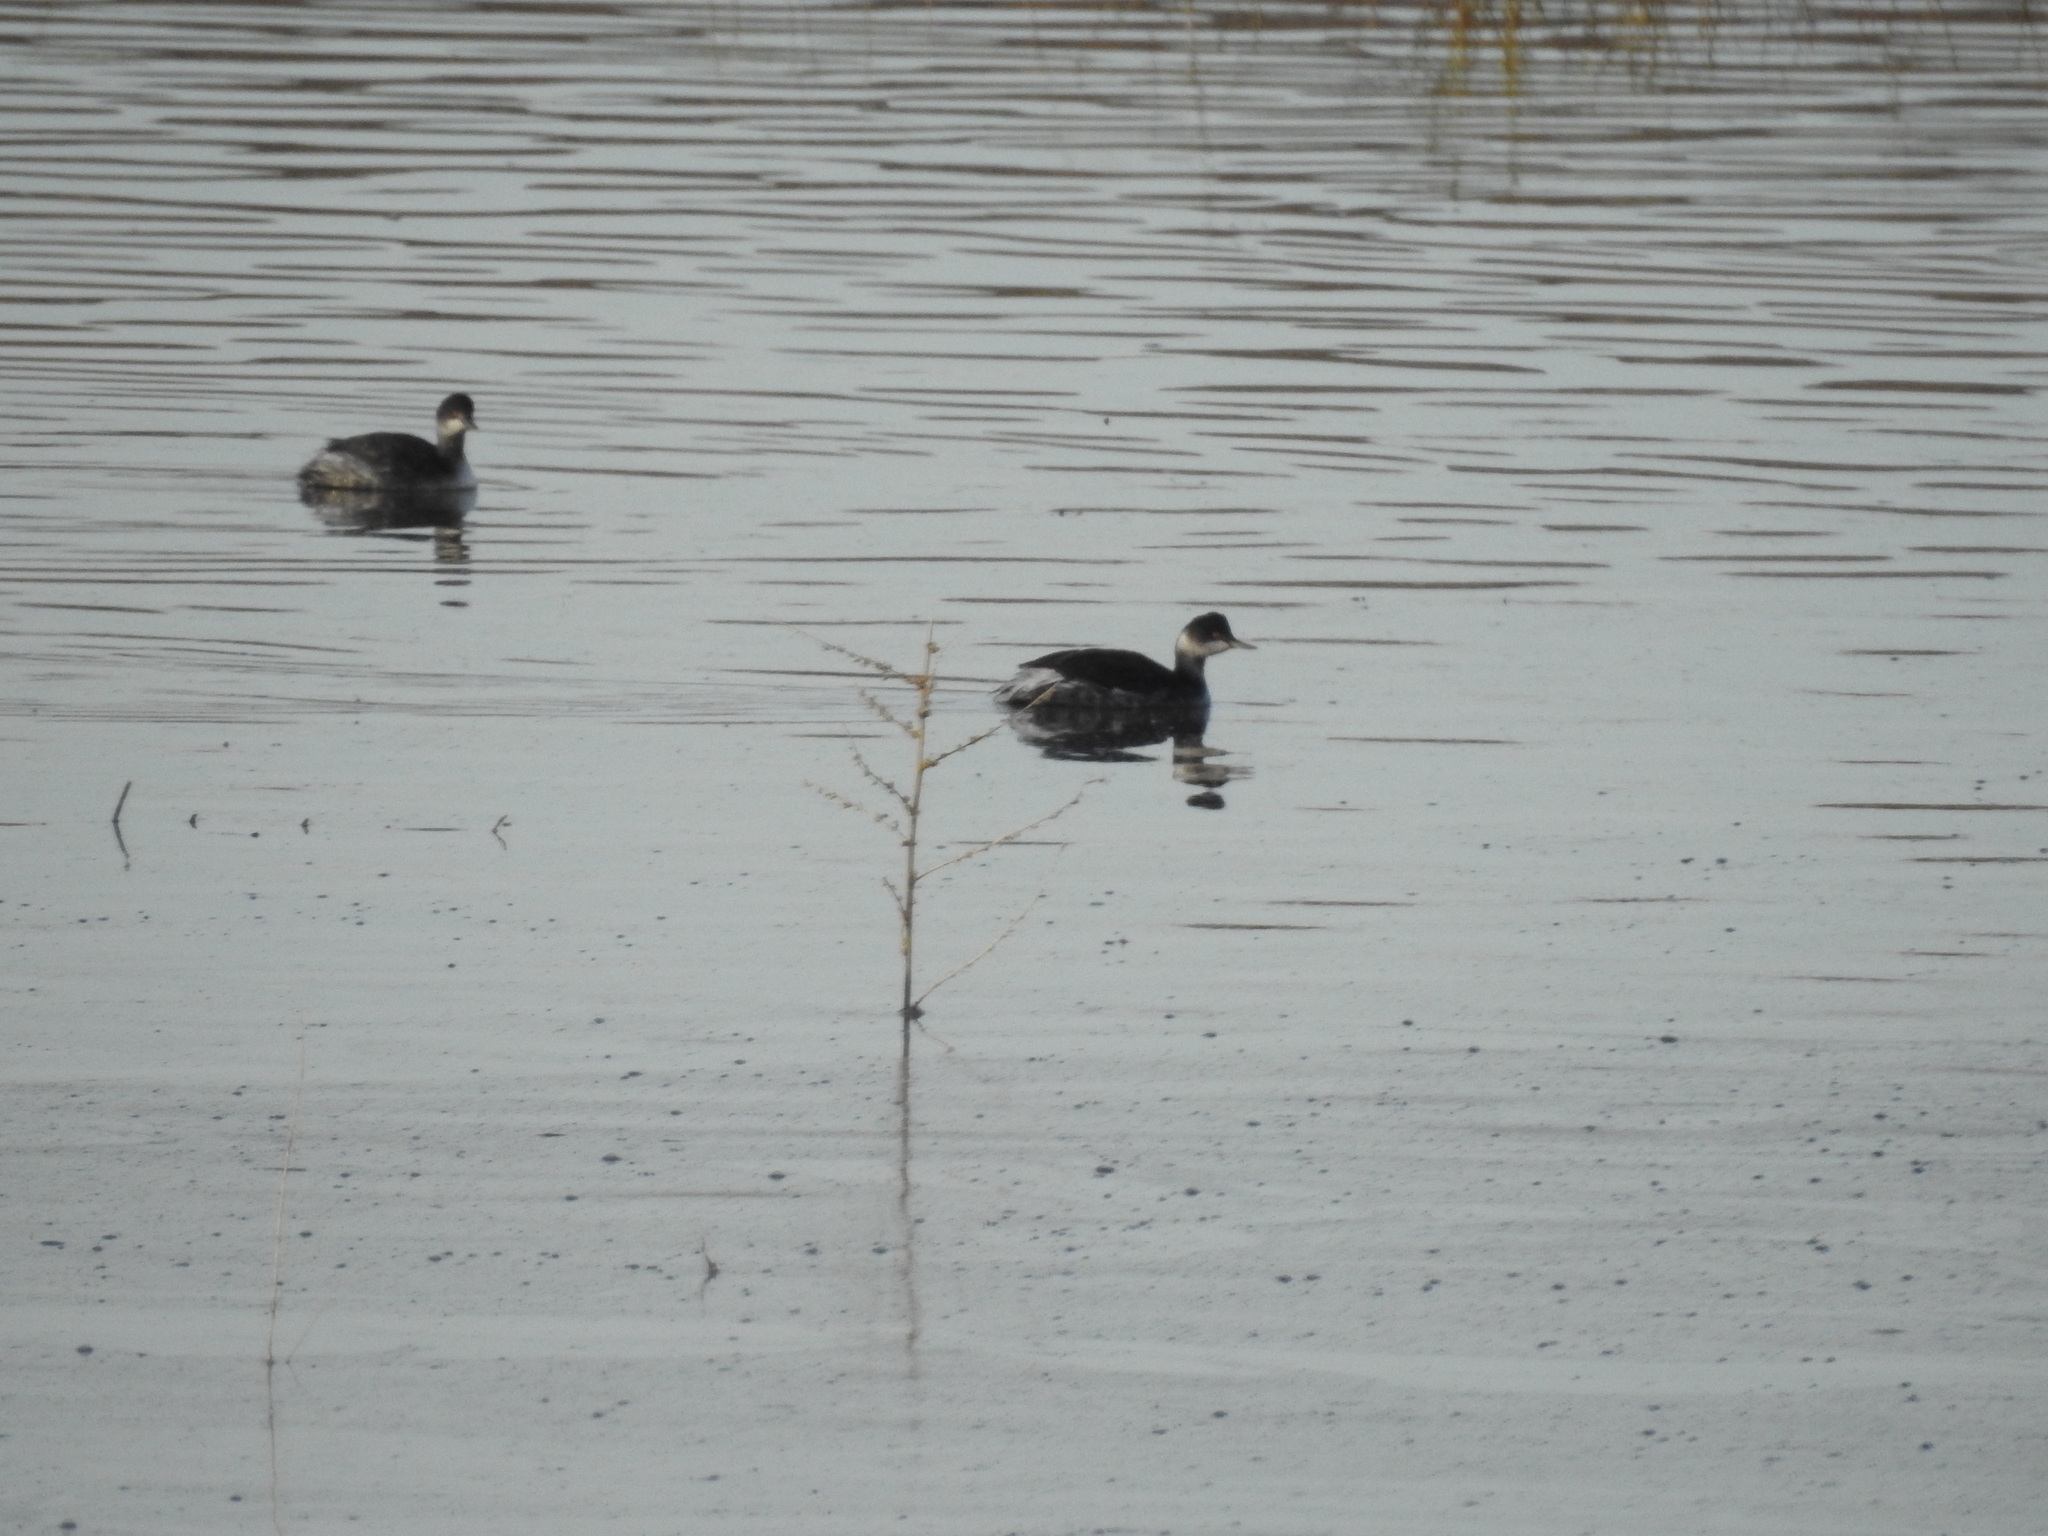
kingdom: Animalia
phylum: Chordata
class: Aves
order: Podicipediformes
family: Podicipedidae
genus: Podiceps
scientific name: Podiceps nigricollis
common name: Black-necked grebe
